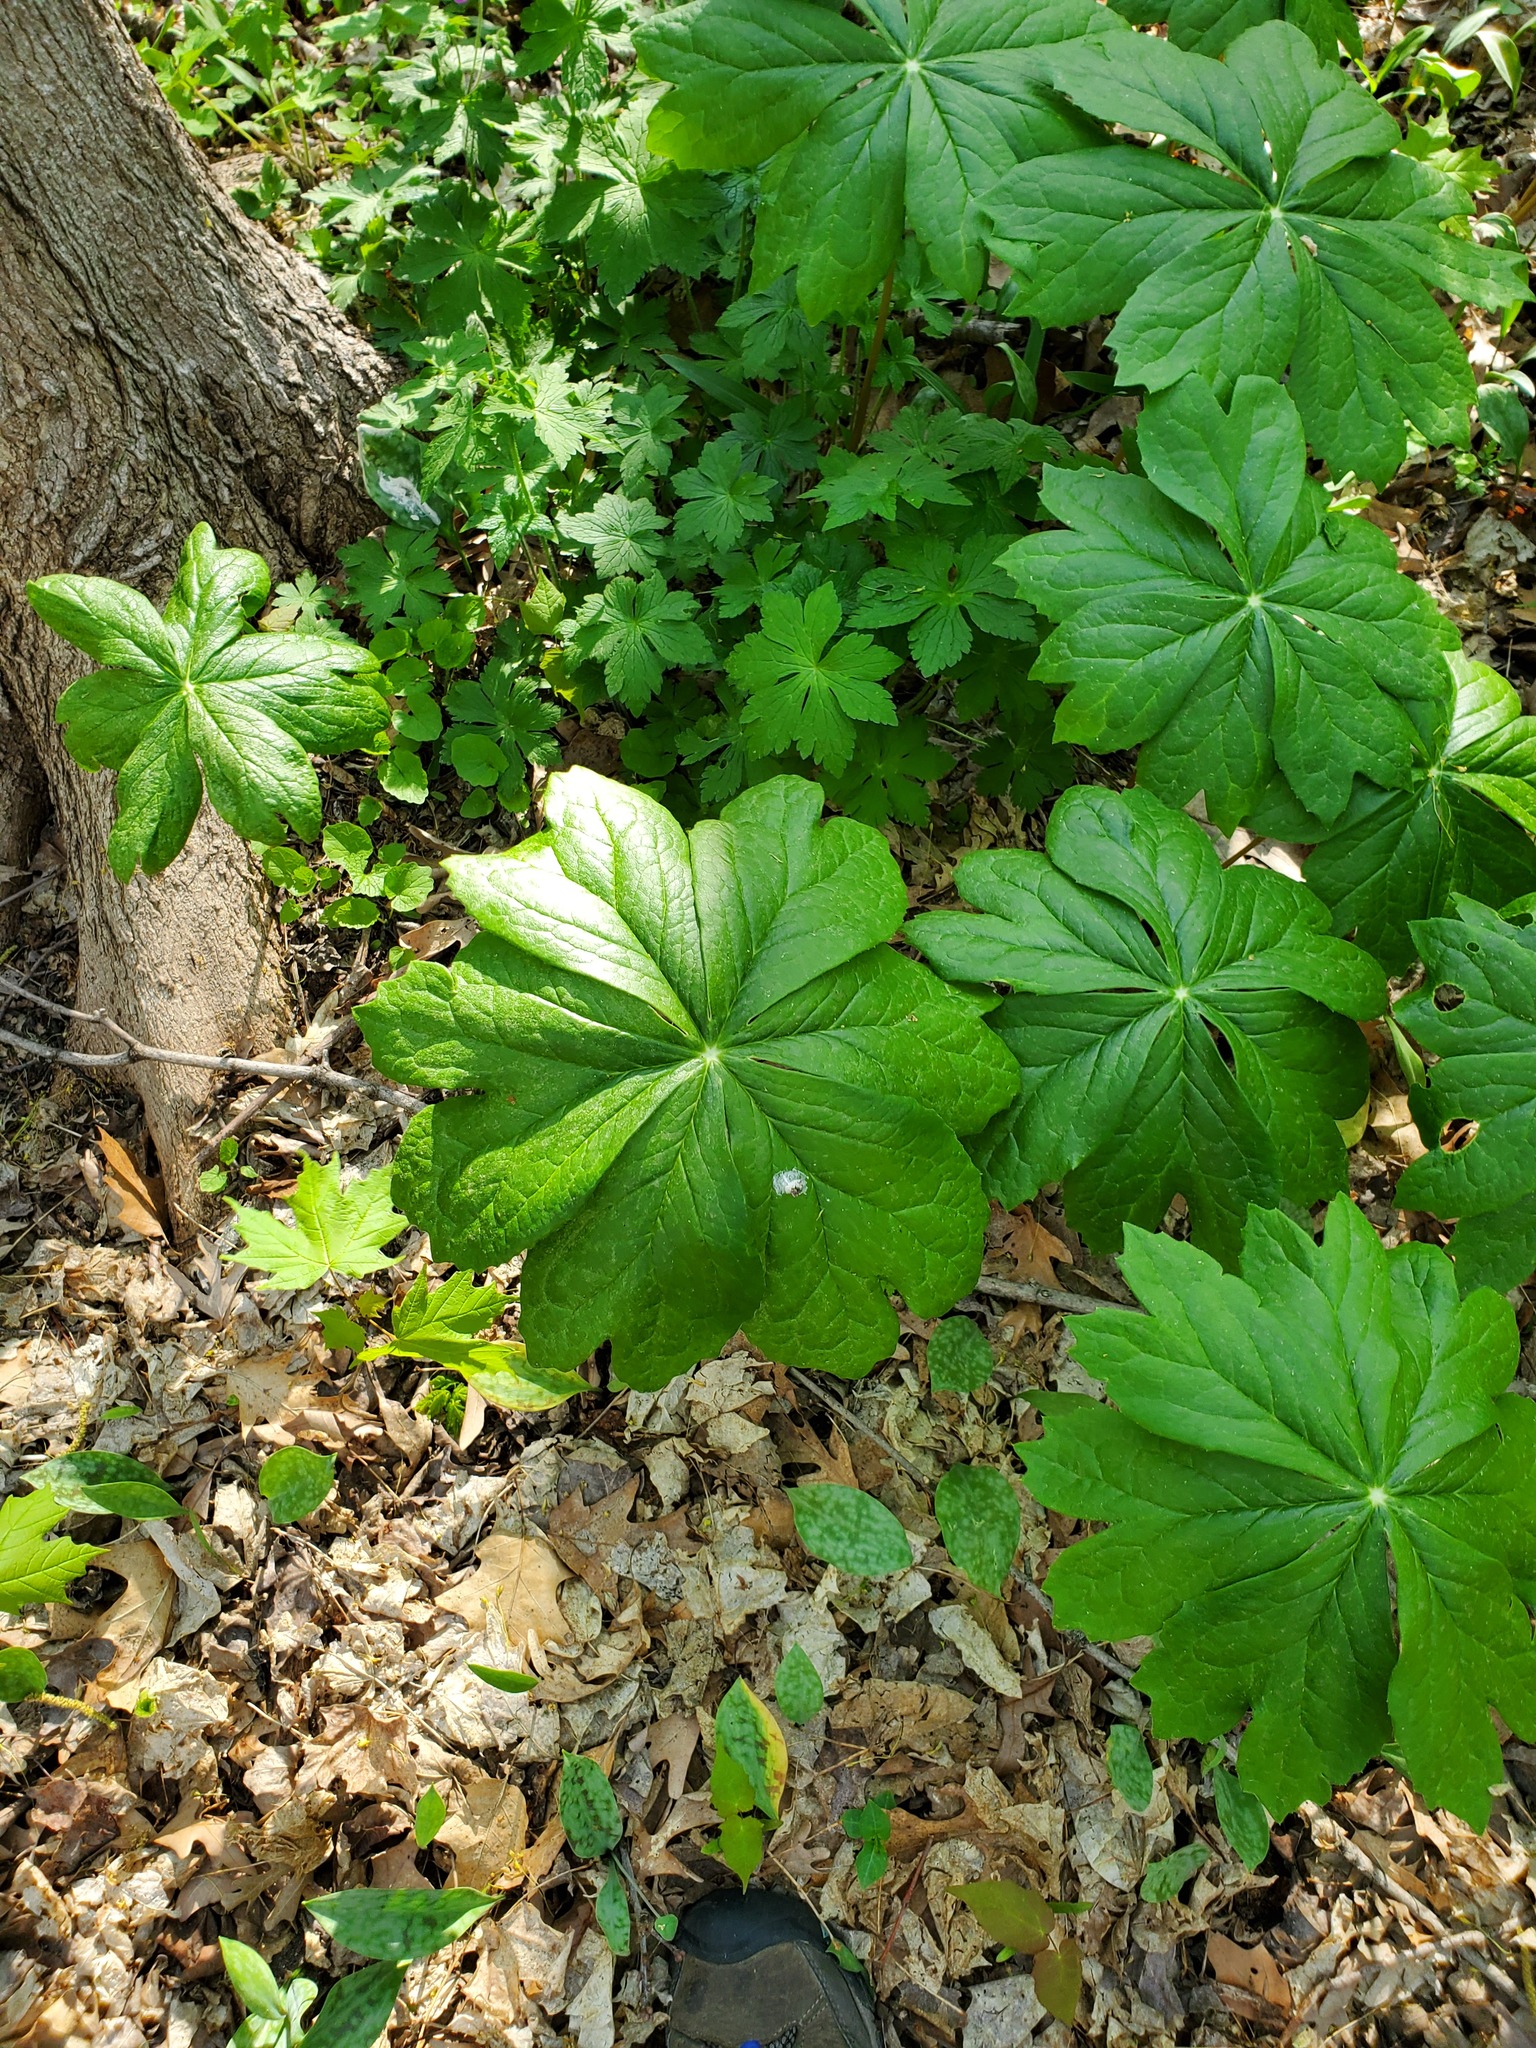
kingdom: Plantae
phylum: Tracheophyta
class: Magnoliopsida
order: Ranunculales
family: Berberidaceae
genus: Podophyllum
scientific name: Podophyllum peltatum
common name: Wild mandrake
